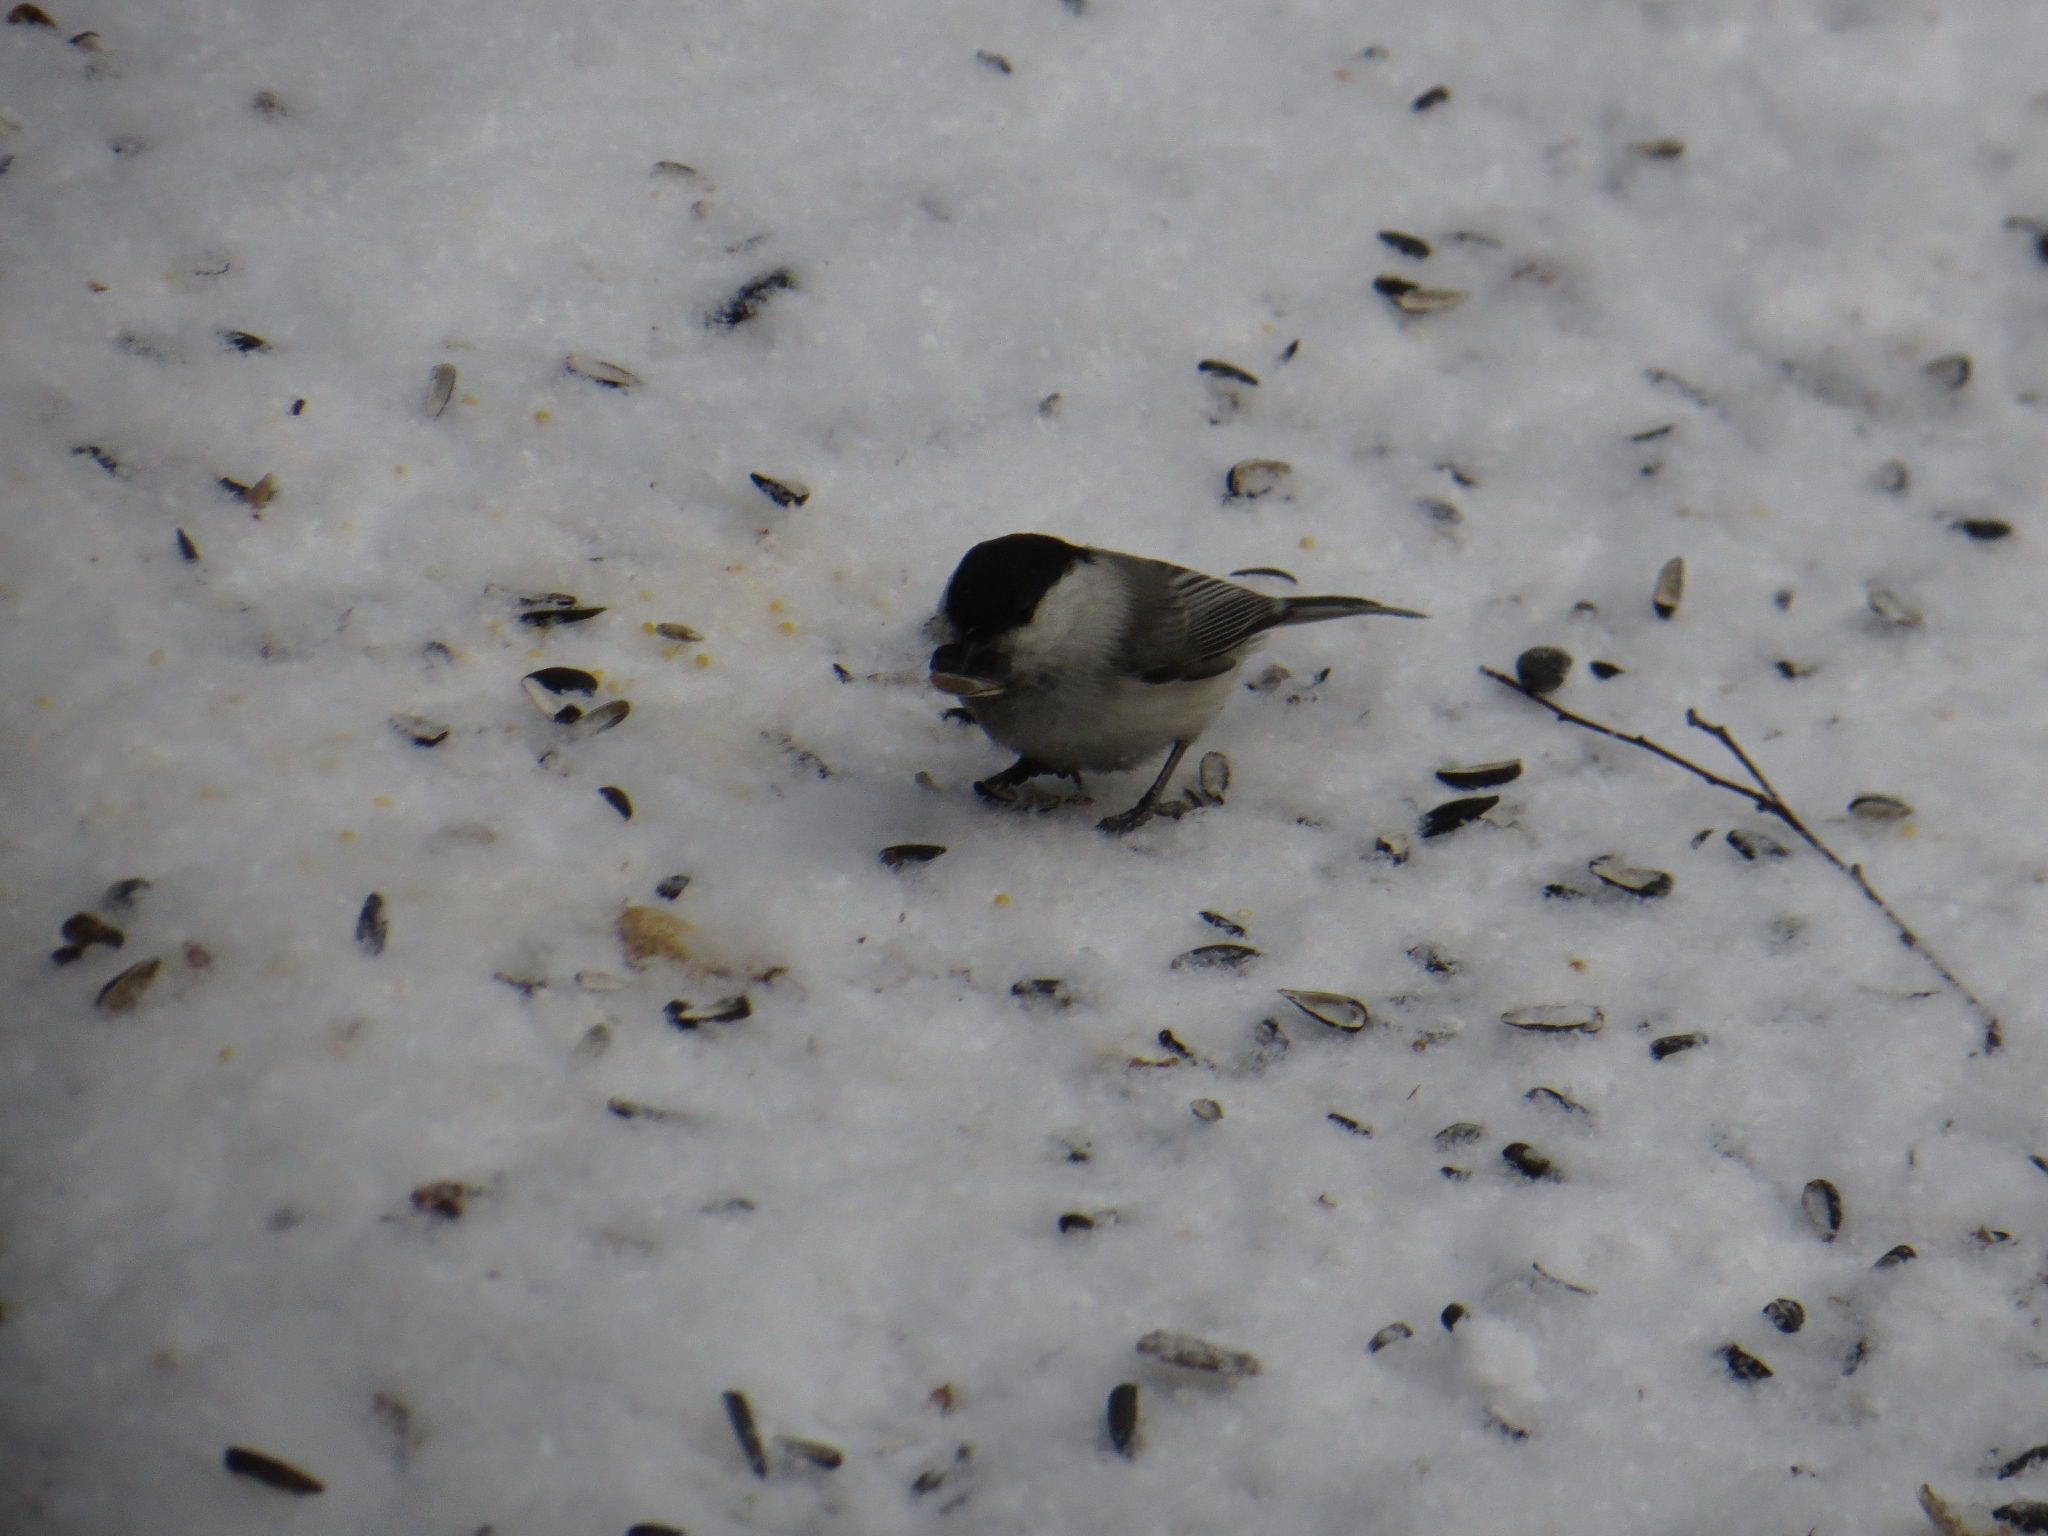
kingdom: Animalia
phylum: Chordata
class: Aves
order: Passeriformes
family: Paridae
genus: Poecile
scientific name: Poecile montanus
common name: Willow tit
